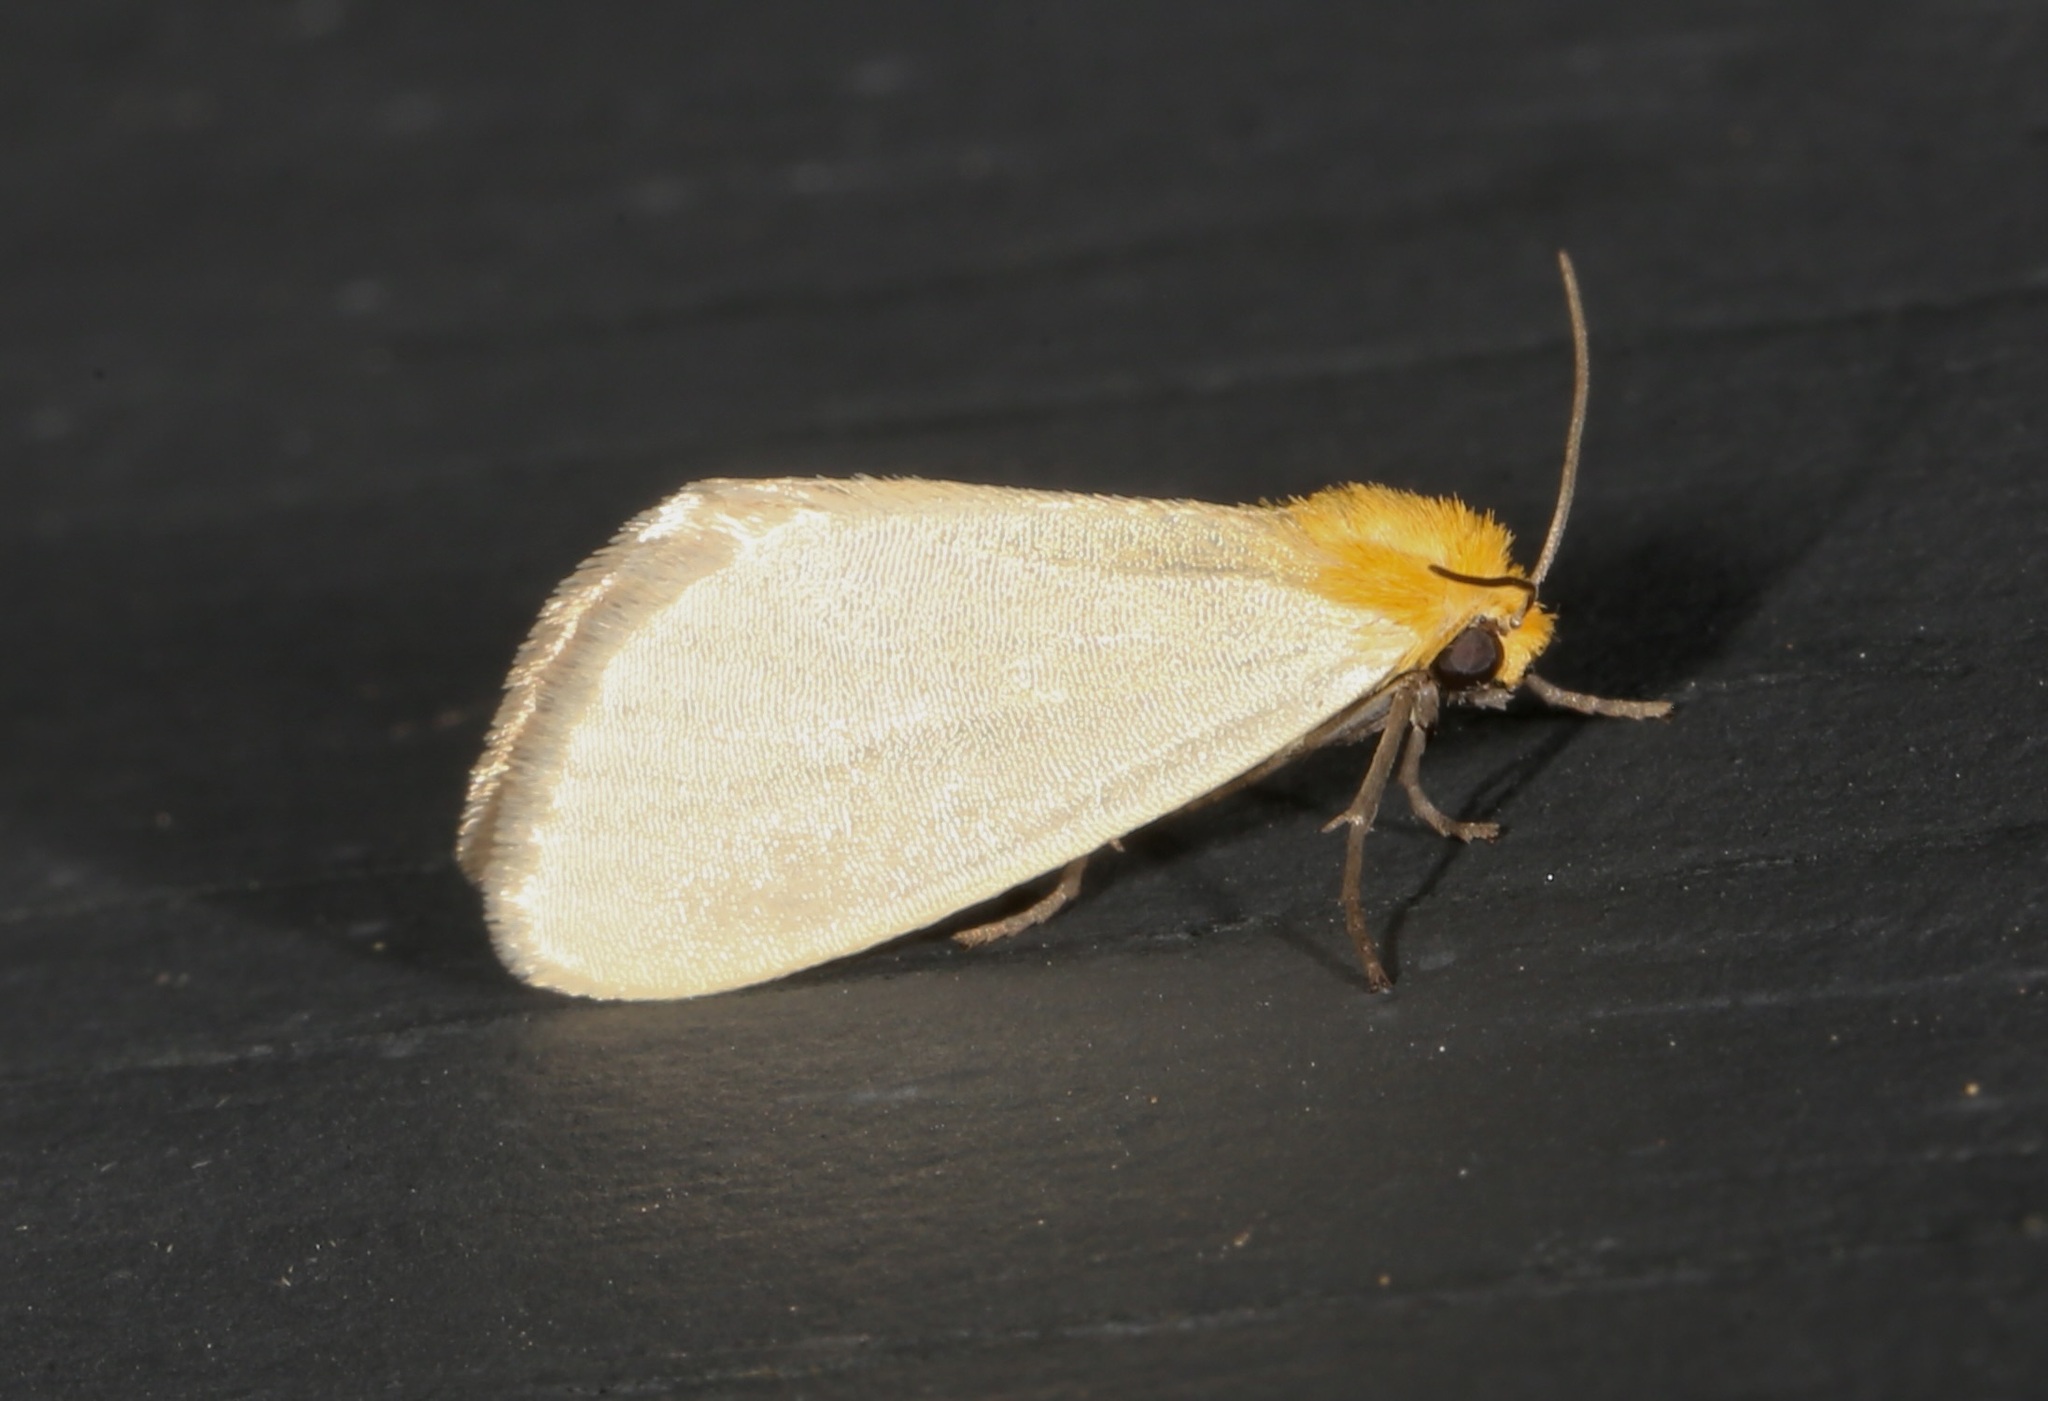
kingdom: Animalia
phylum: Arthropoda
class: Insecta
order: Lepidoptera
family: Noctuidae
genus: Chrysoecia
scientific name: Chrysoecia thoracica
